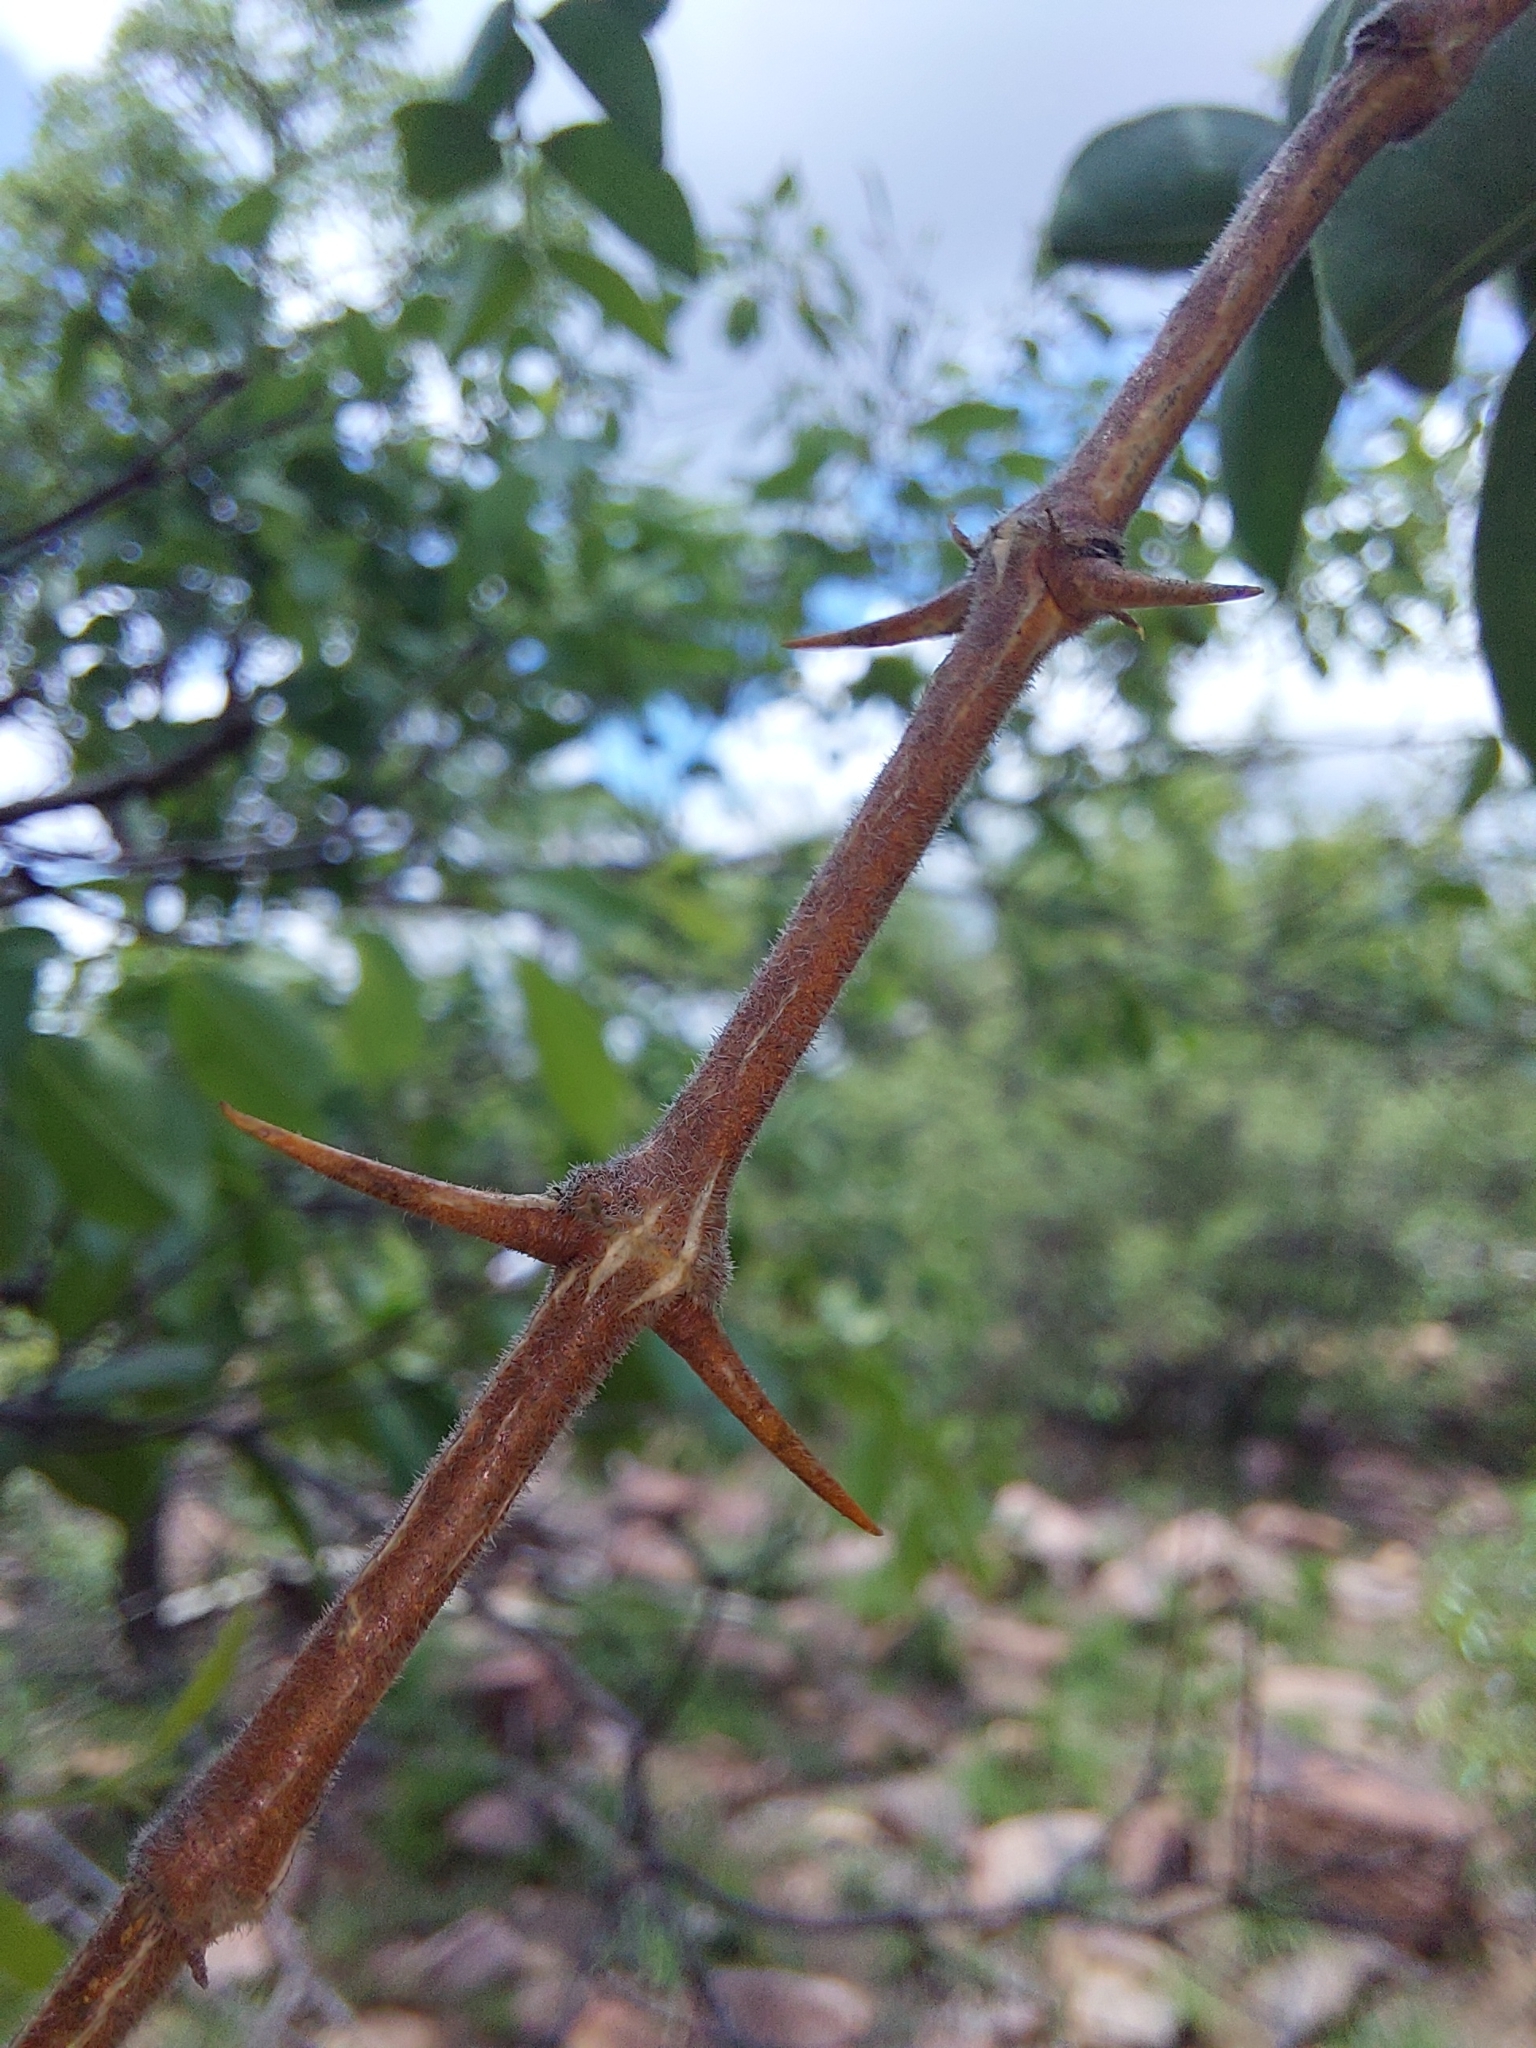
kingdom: Plantae
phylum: Tracheophyta
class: Magnoliopsida
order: Gentianales
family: Loganiaceae
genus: Strychnos
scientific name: Strychnos cocculoides
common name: Corky-bark monkey-orange
